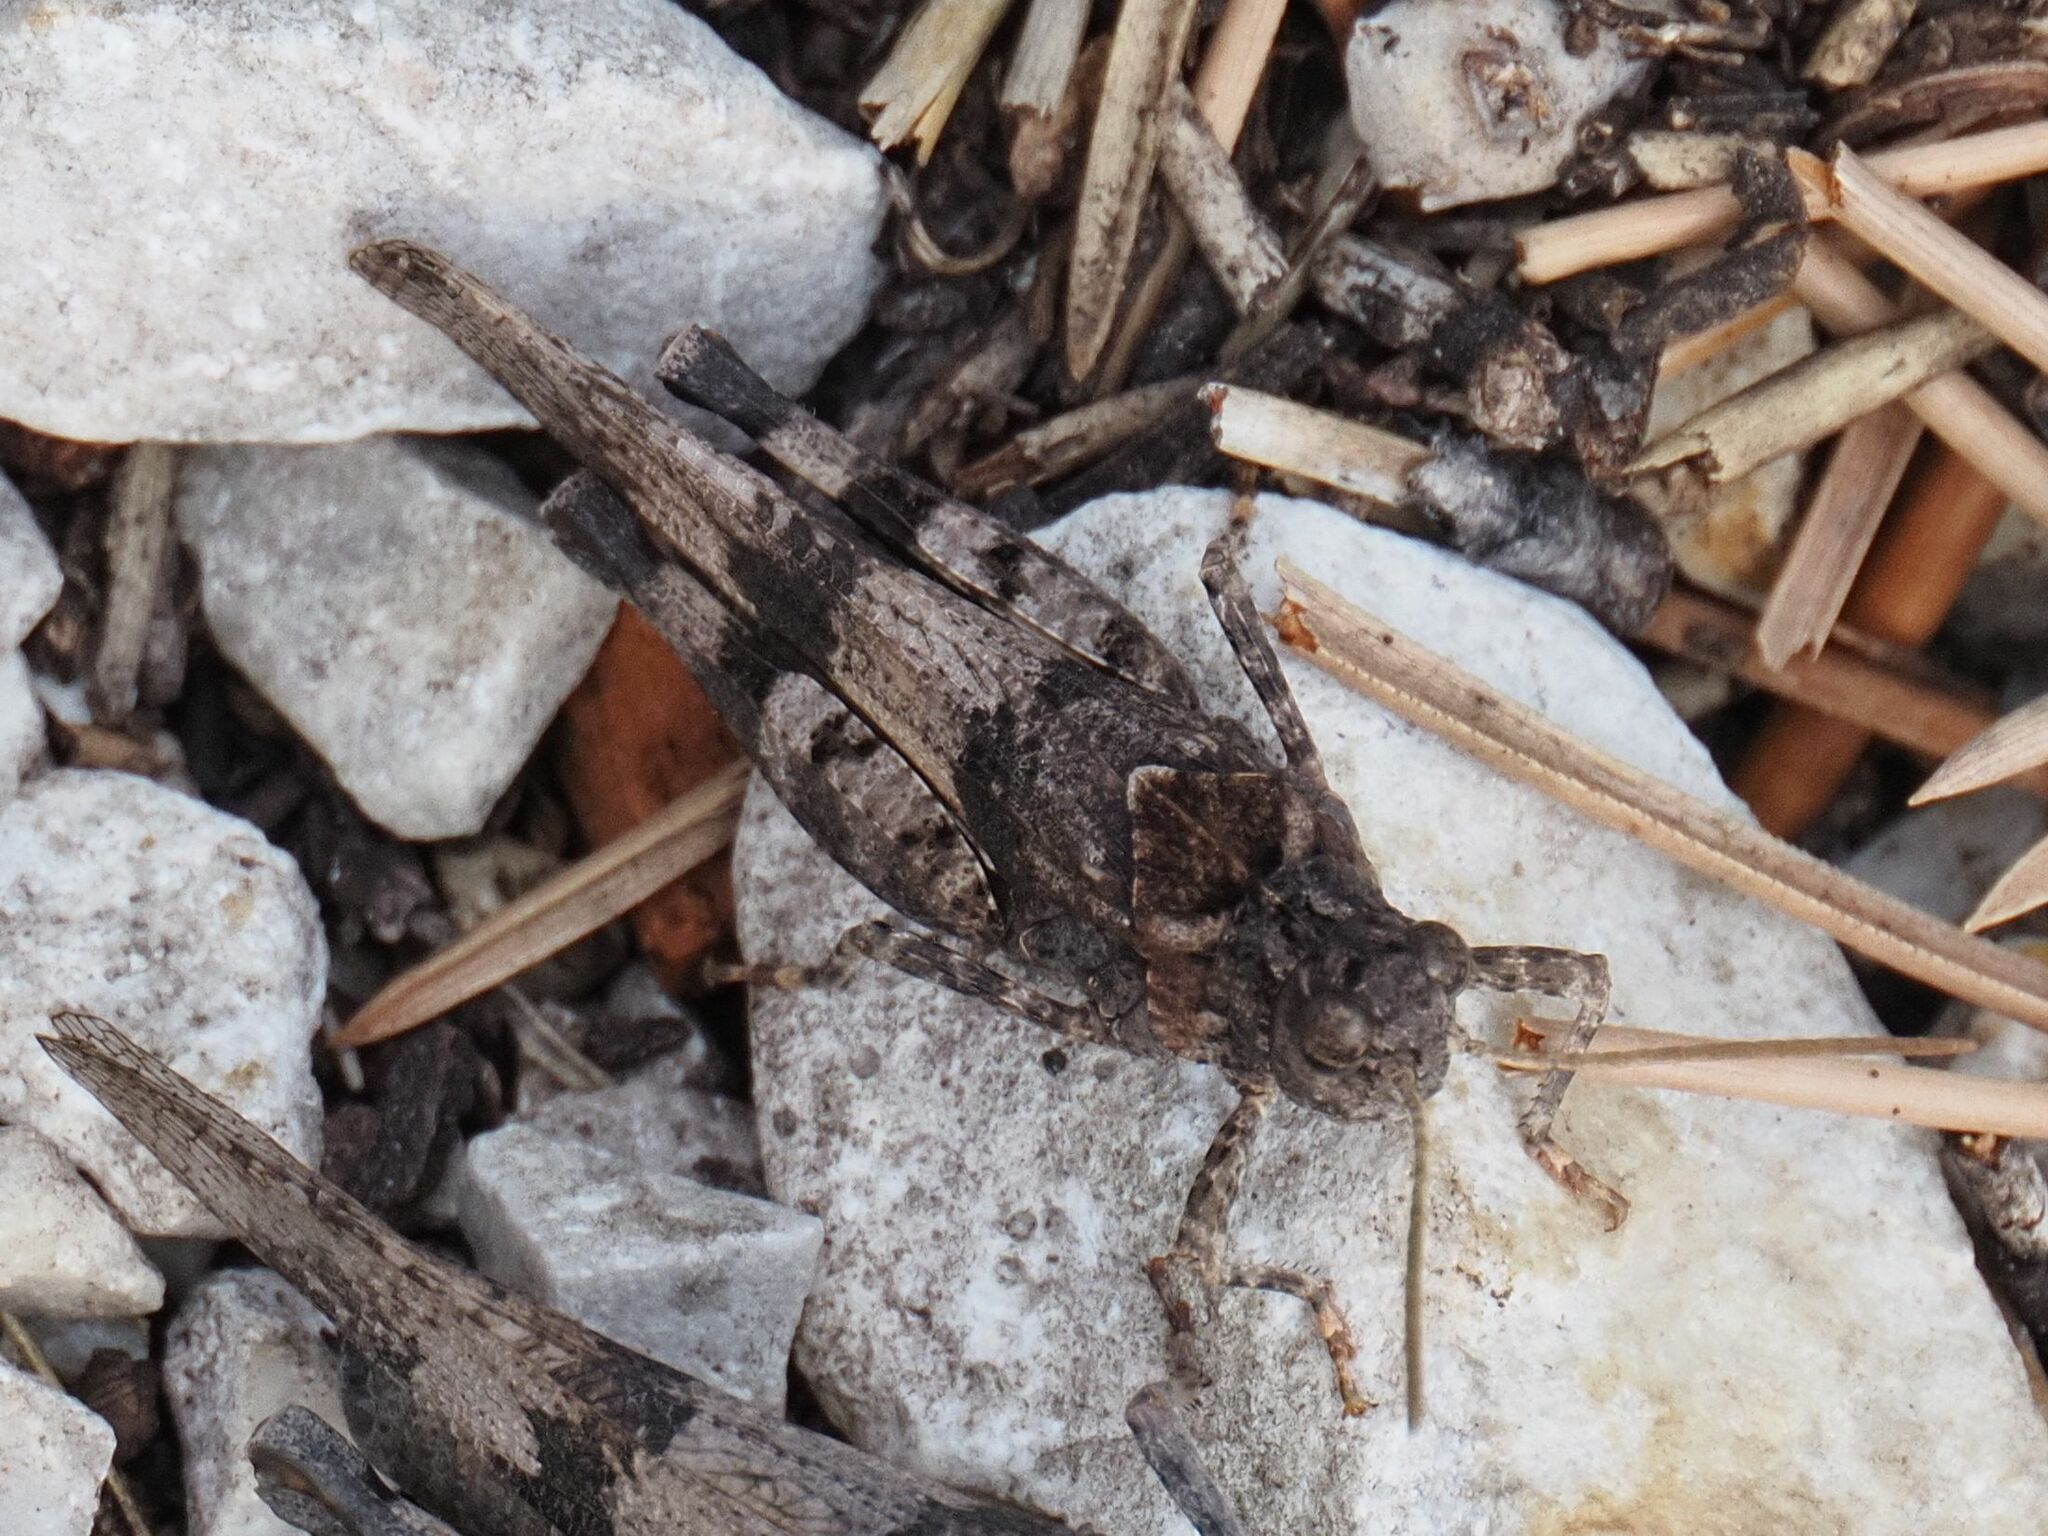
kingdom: Animalia
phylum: Arthropoda
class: Insecta
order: Orthoptera
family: Acrididae
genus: Oedipoda
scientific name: Oedipoda caerulescens
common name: Blue-winged grasshopper
